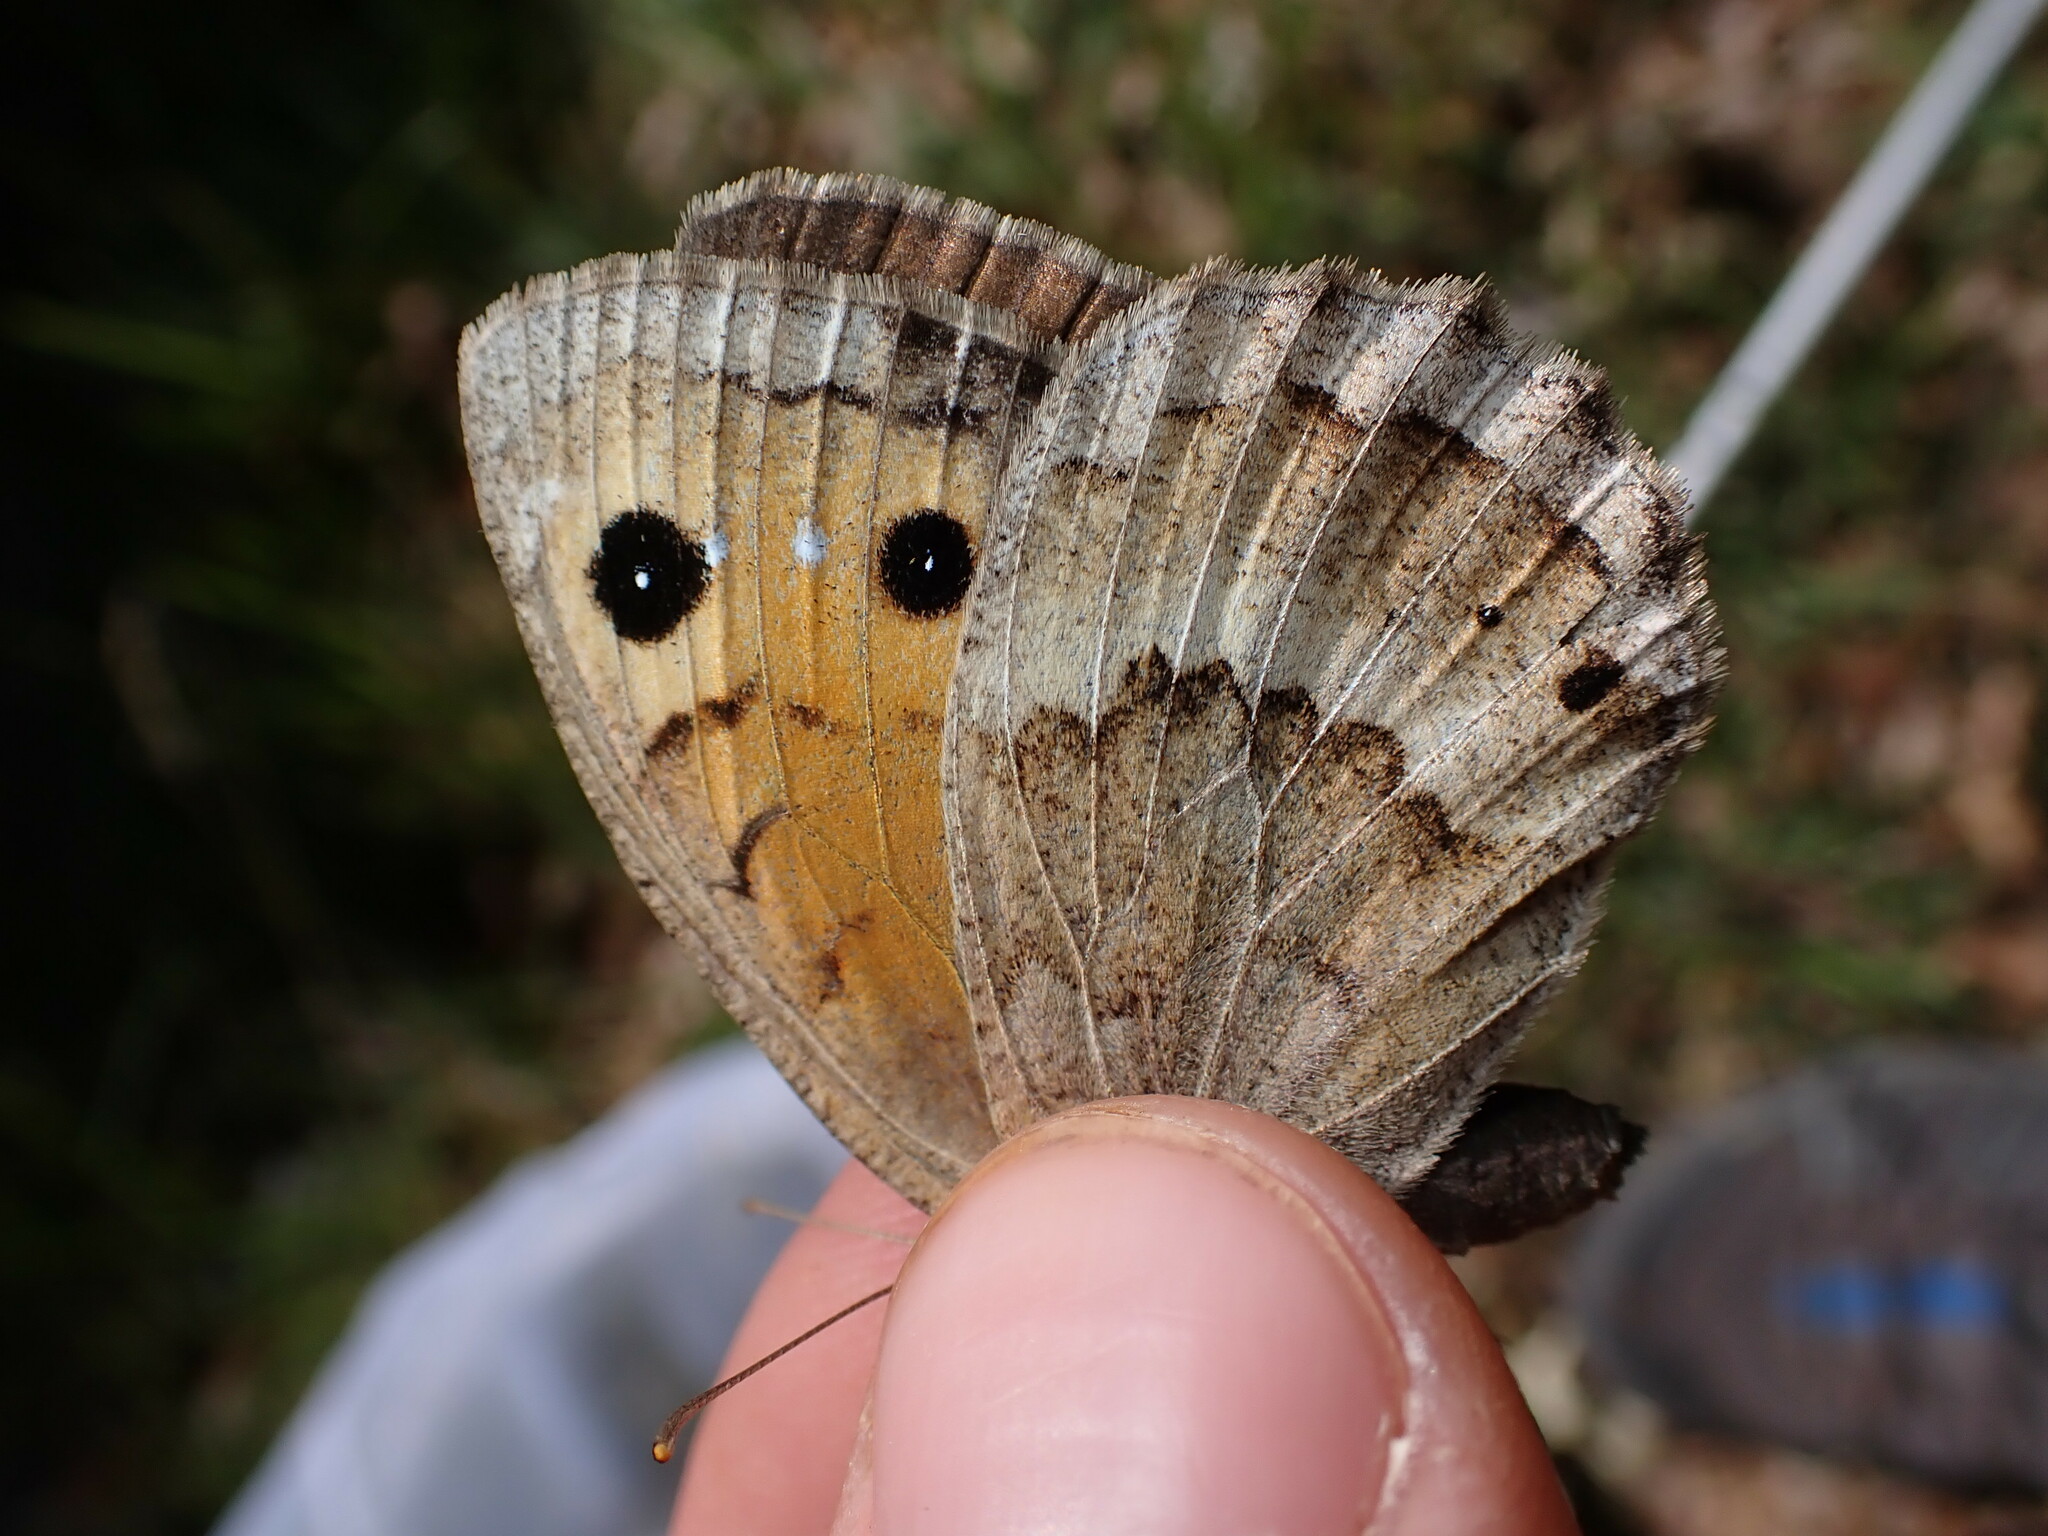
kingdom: Animalia
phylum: Arthropoda
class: Insecta
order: Lepidoptera
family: Nymphalidae
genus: Satyrus
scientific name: Satyrus ferula
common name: Great sooty satyr
